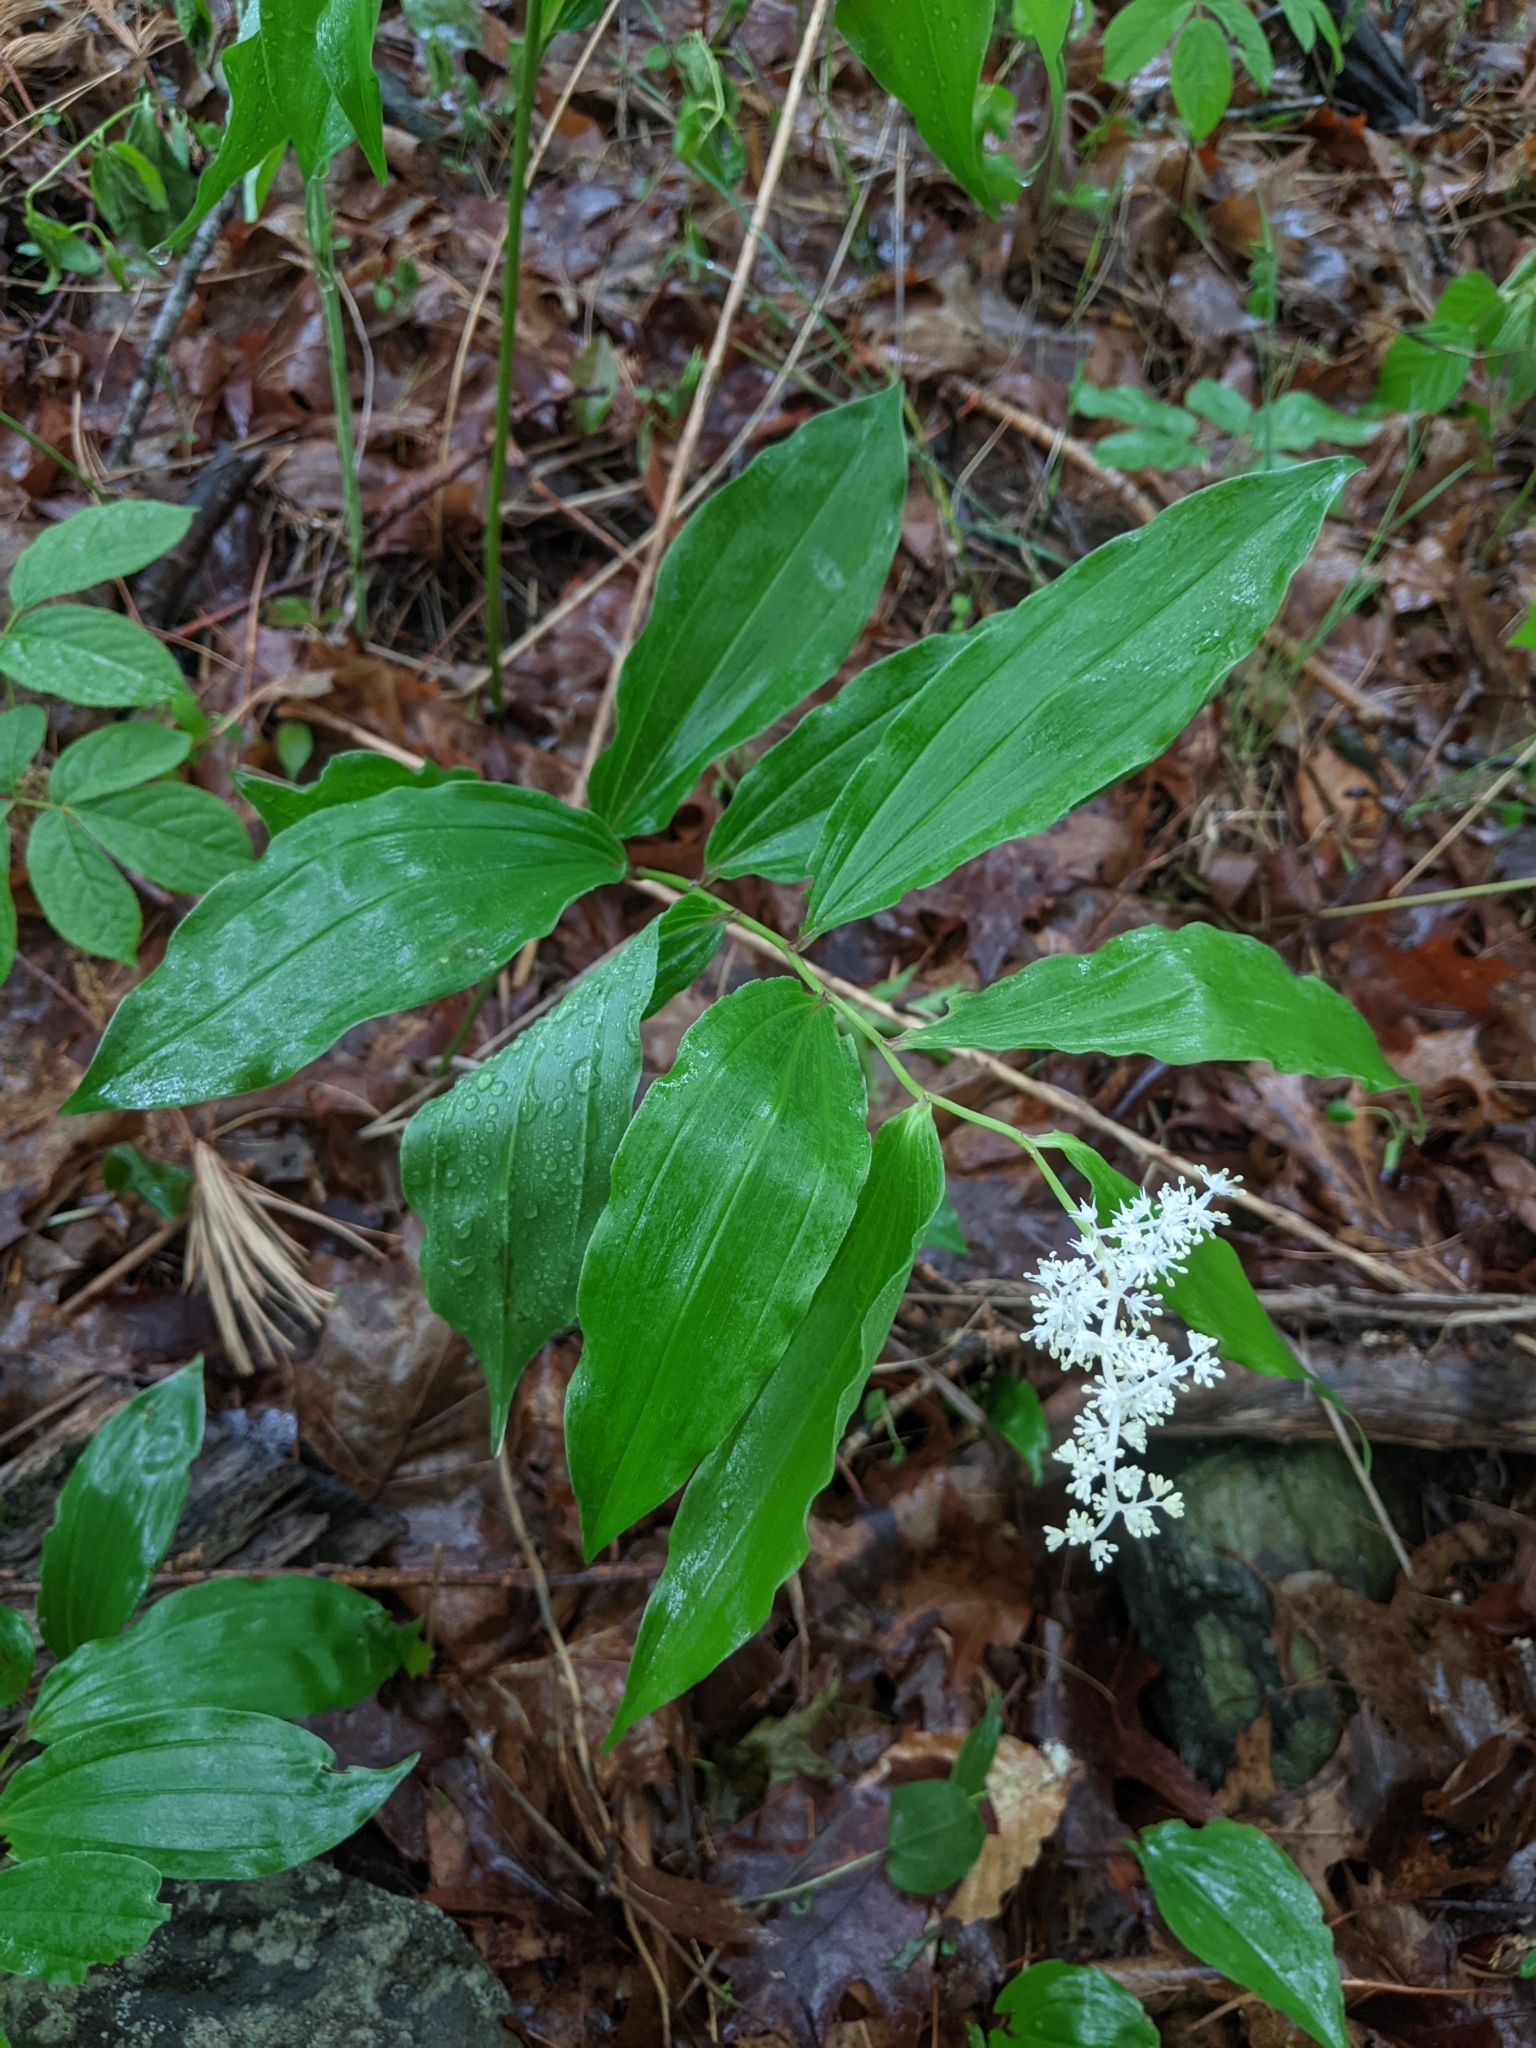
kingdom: Plantae
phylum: Tracheophyta
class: Liliopsida
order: Asparagales
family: Asparagaceae
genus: Maianthemum
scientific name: Maianthemum racemosum
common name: False spikenard
